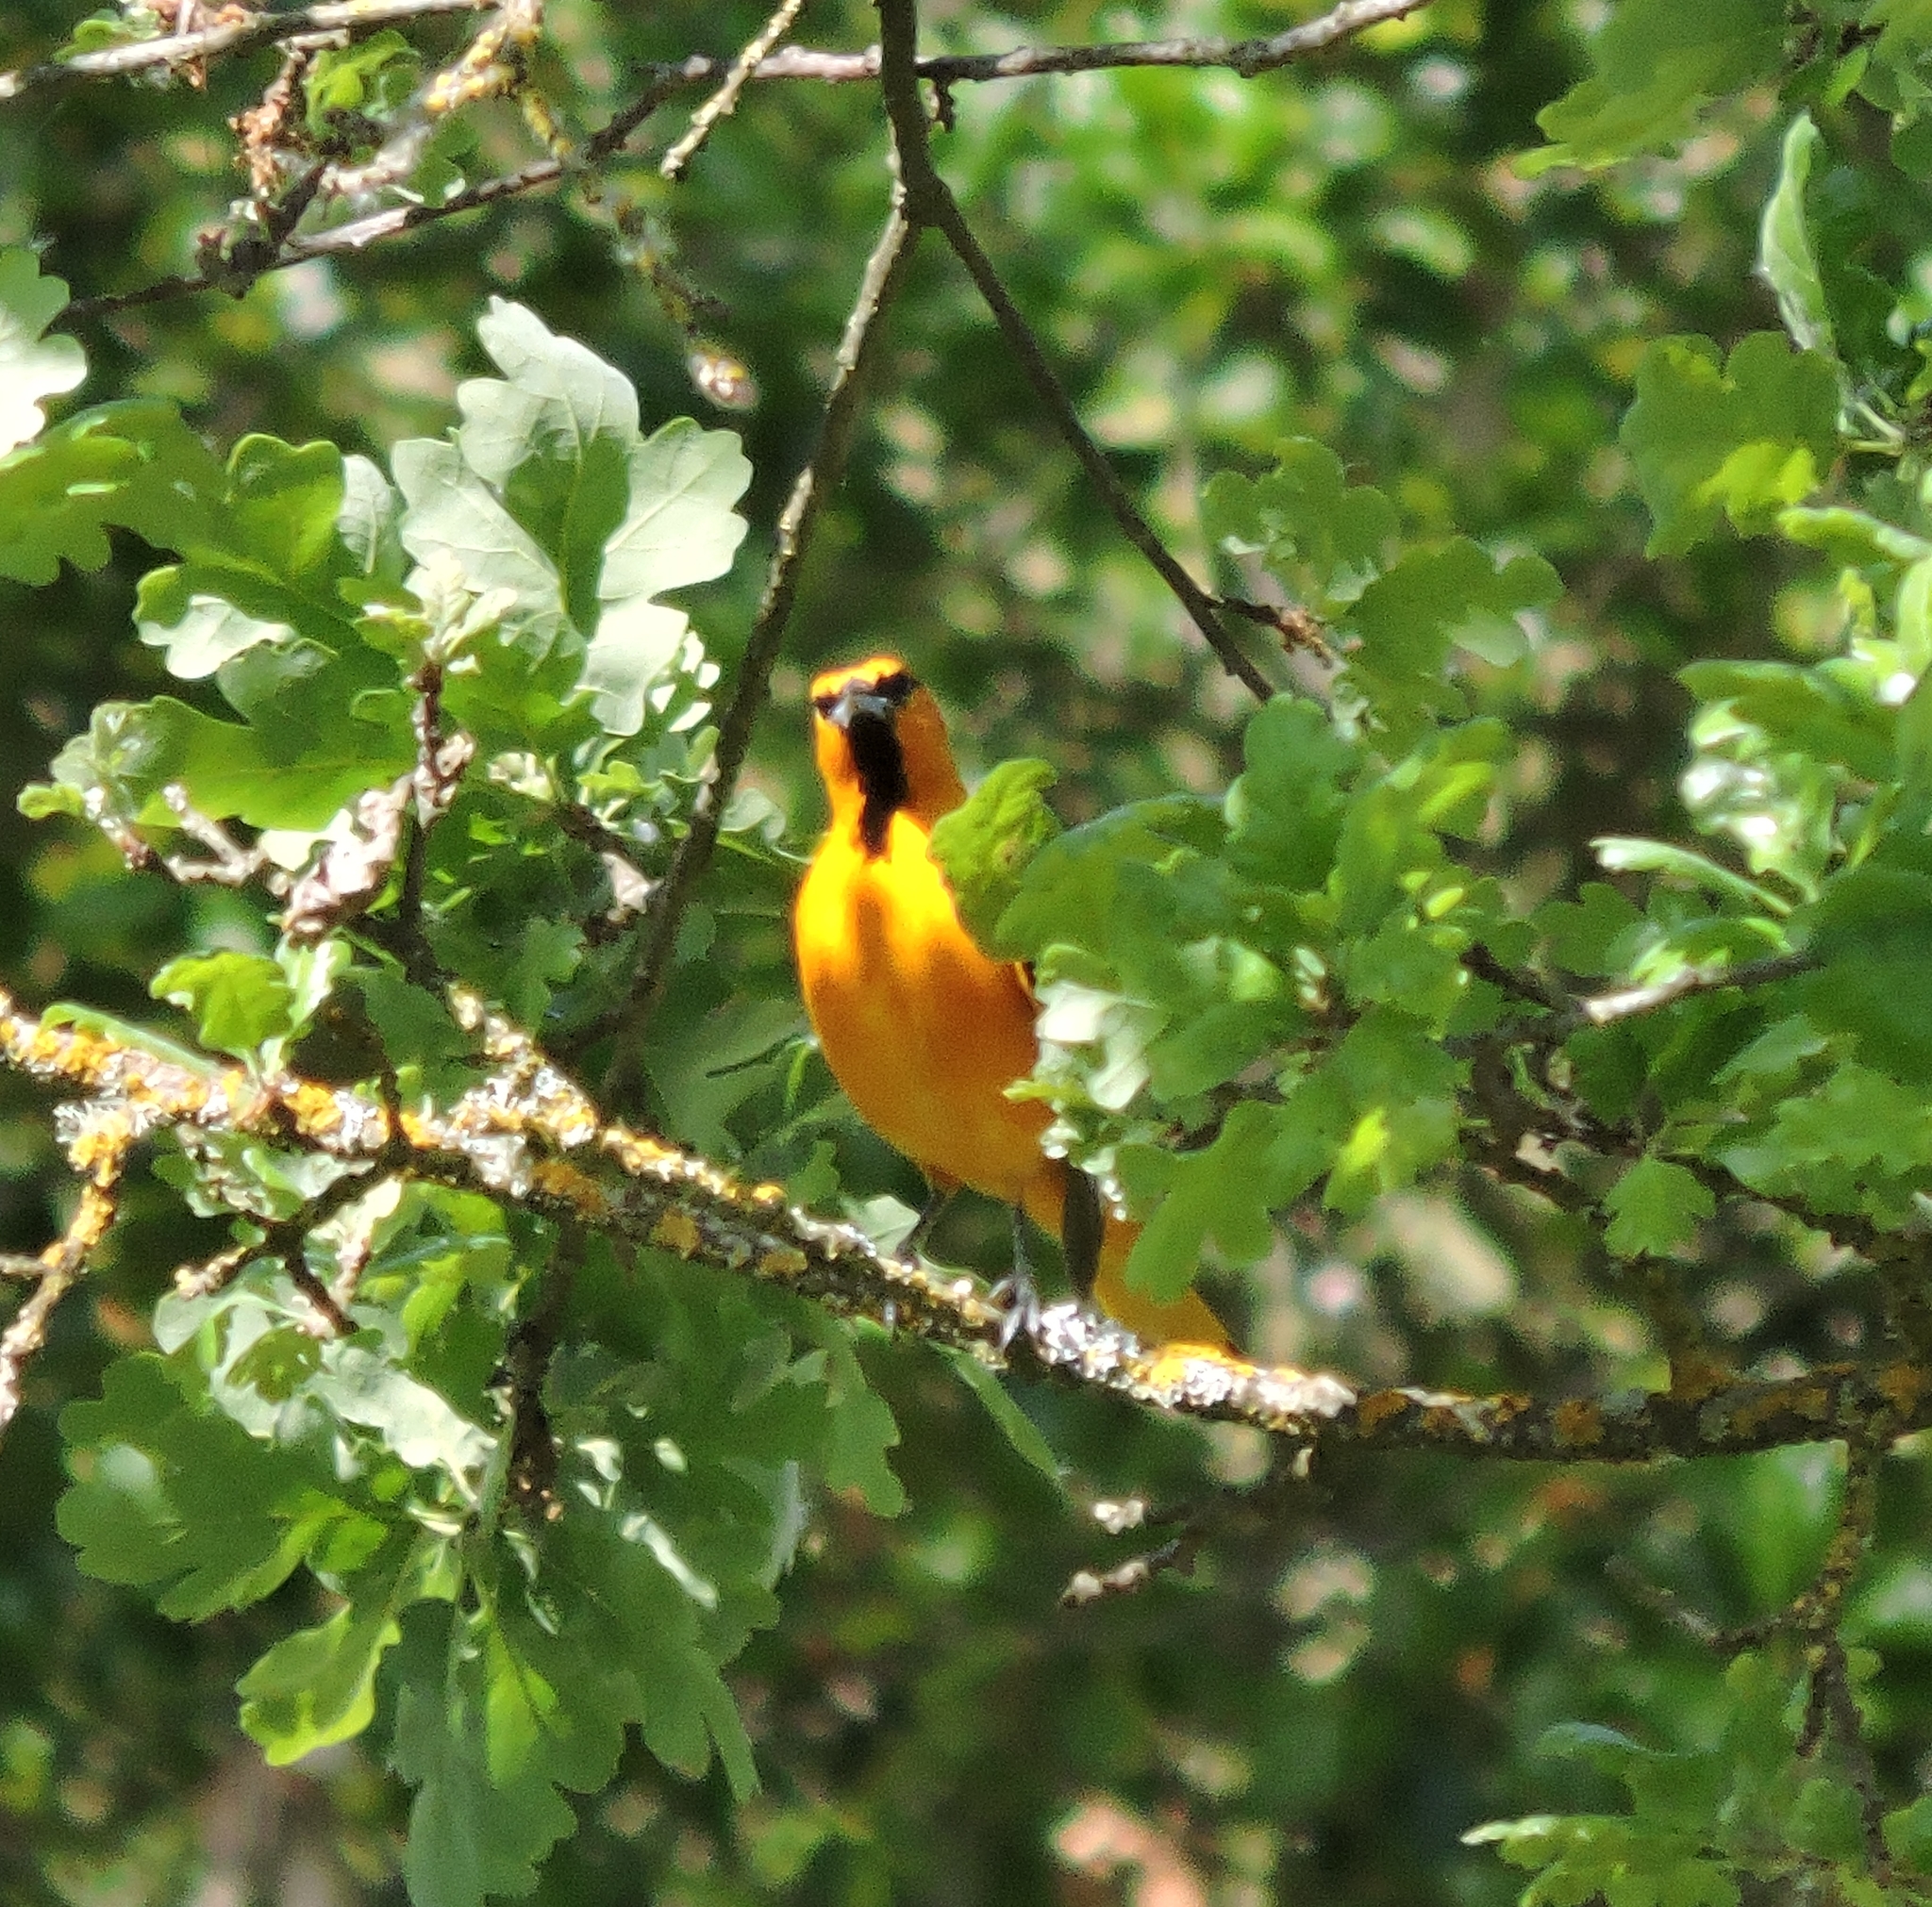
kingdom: Animalia
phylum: Chordata
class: Aves
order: Passeriformes
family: Icteridae
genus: Icterus
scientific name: Icterus cucullatus
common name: Hooded oriole
